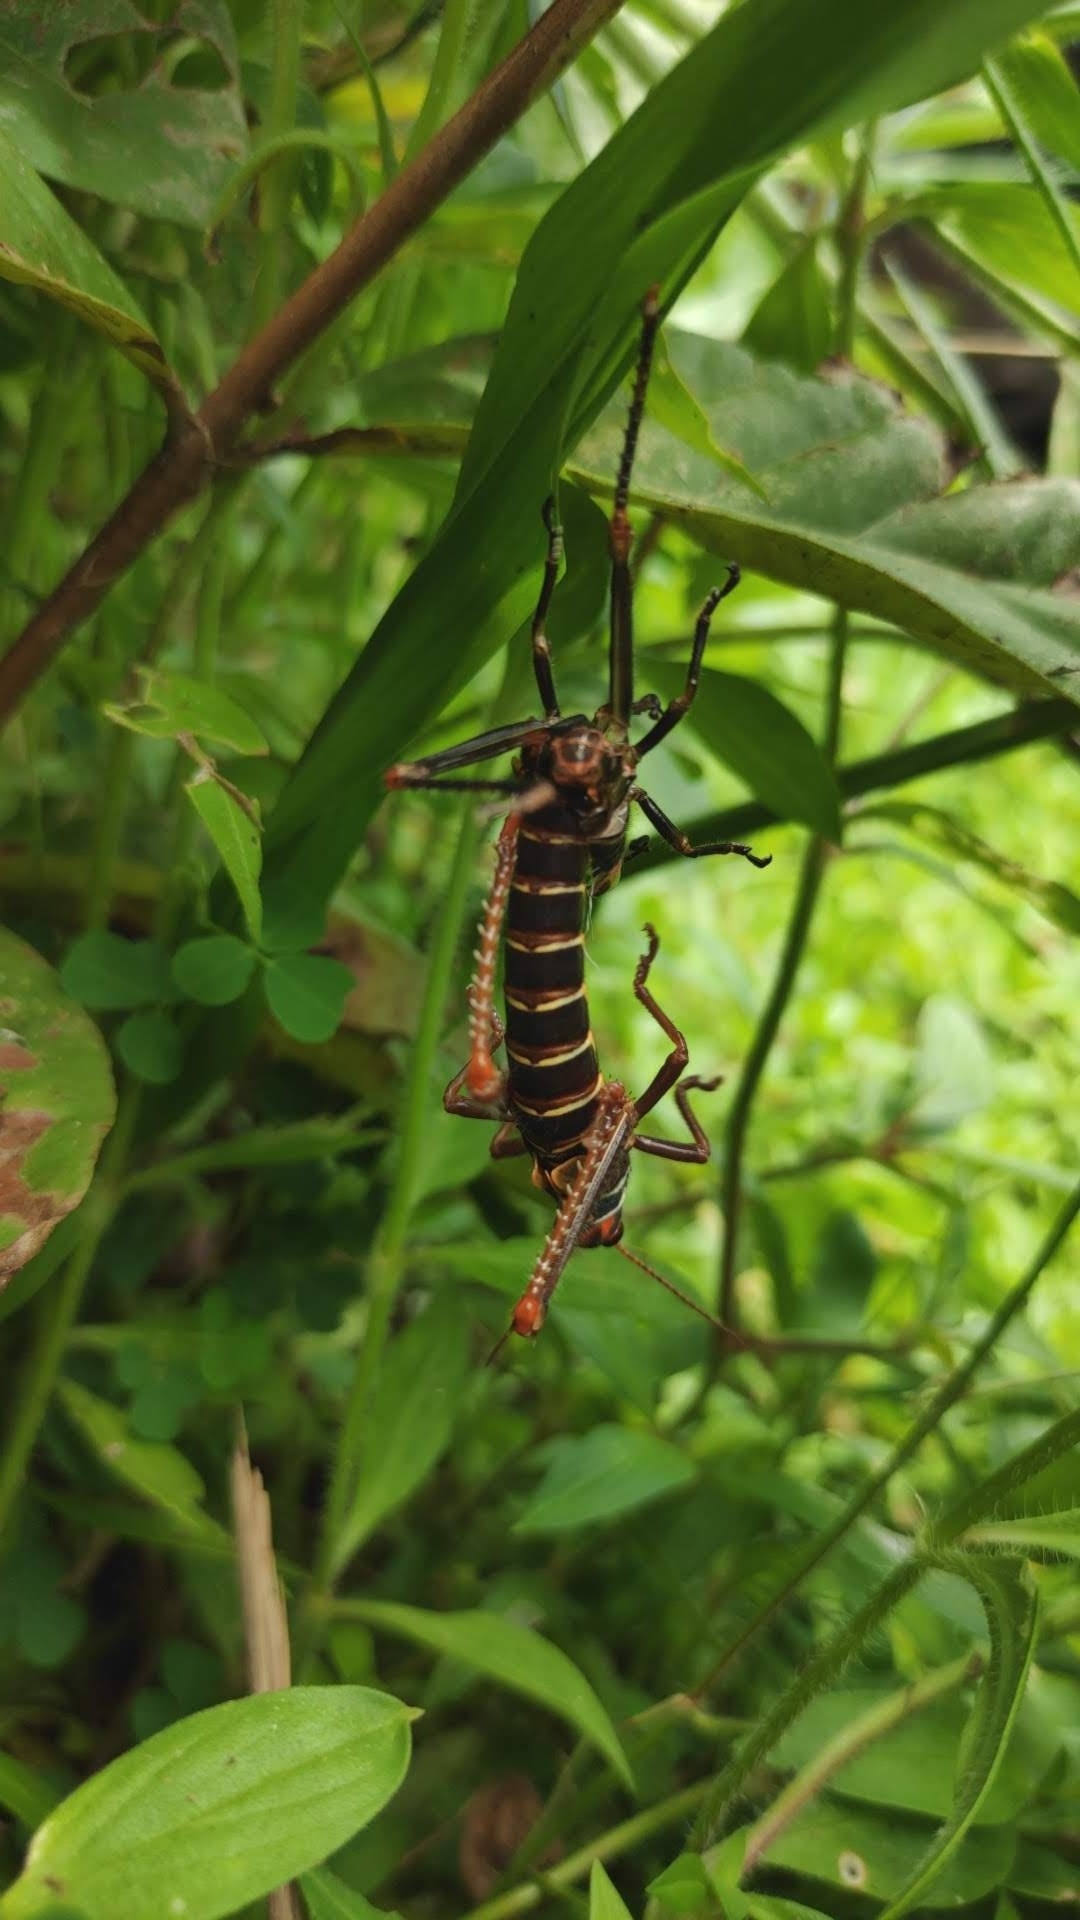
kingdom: Animalia
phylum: Arthropoda
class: Insecta
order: Orthoptera
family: Romaleidae
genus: Tropidacris
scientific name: Tropidacris collaris
